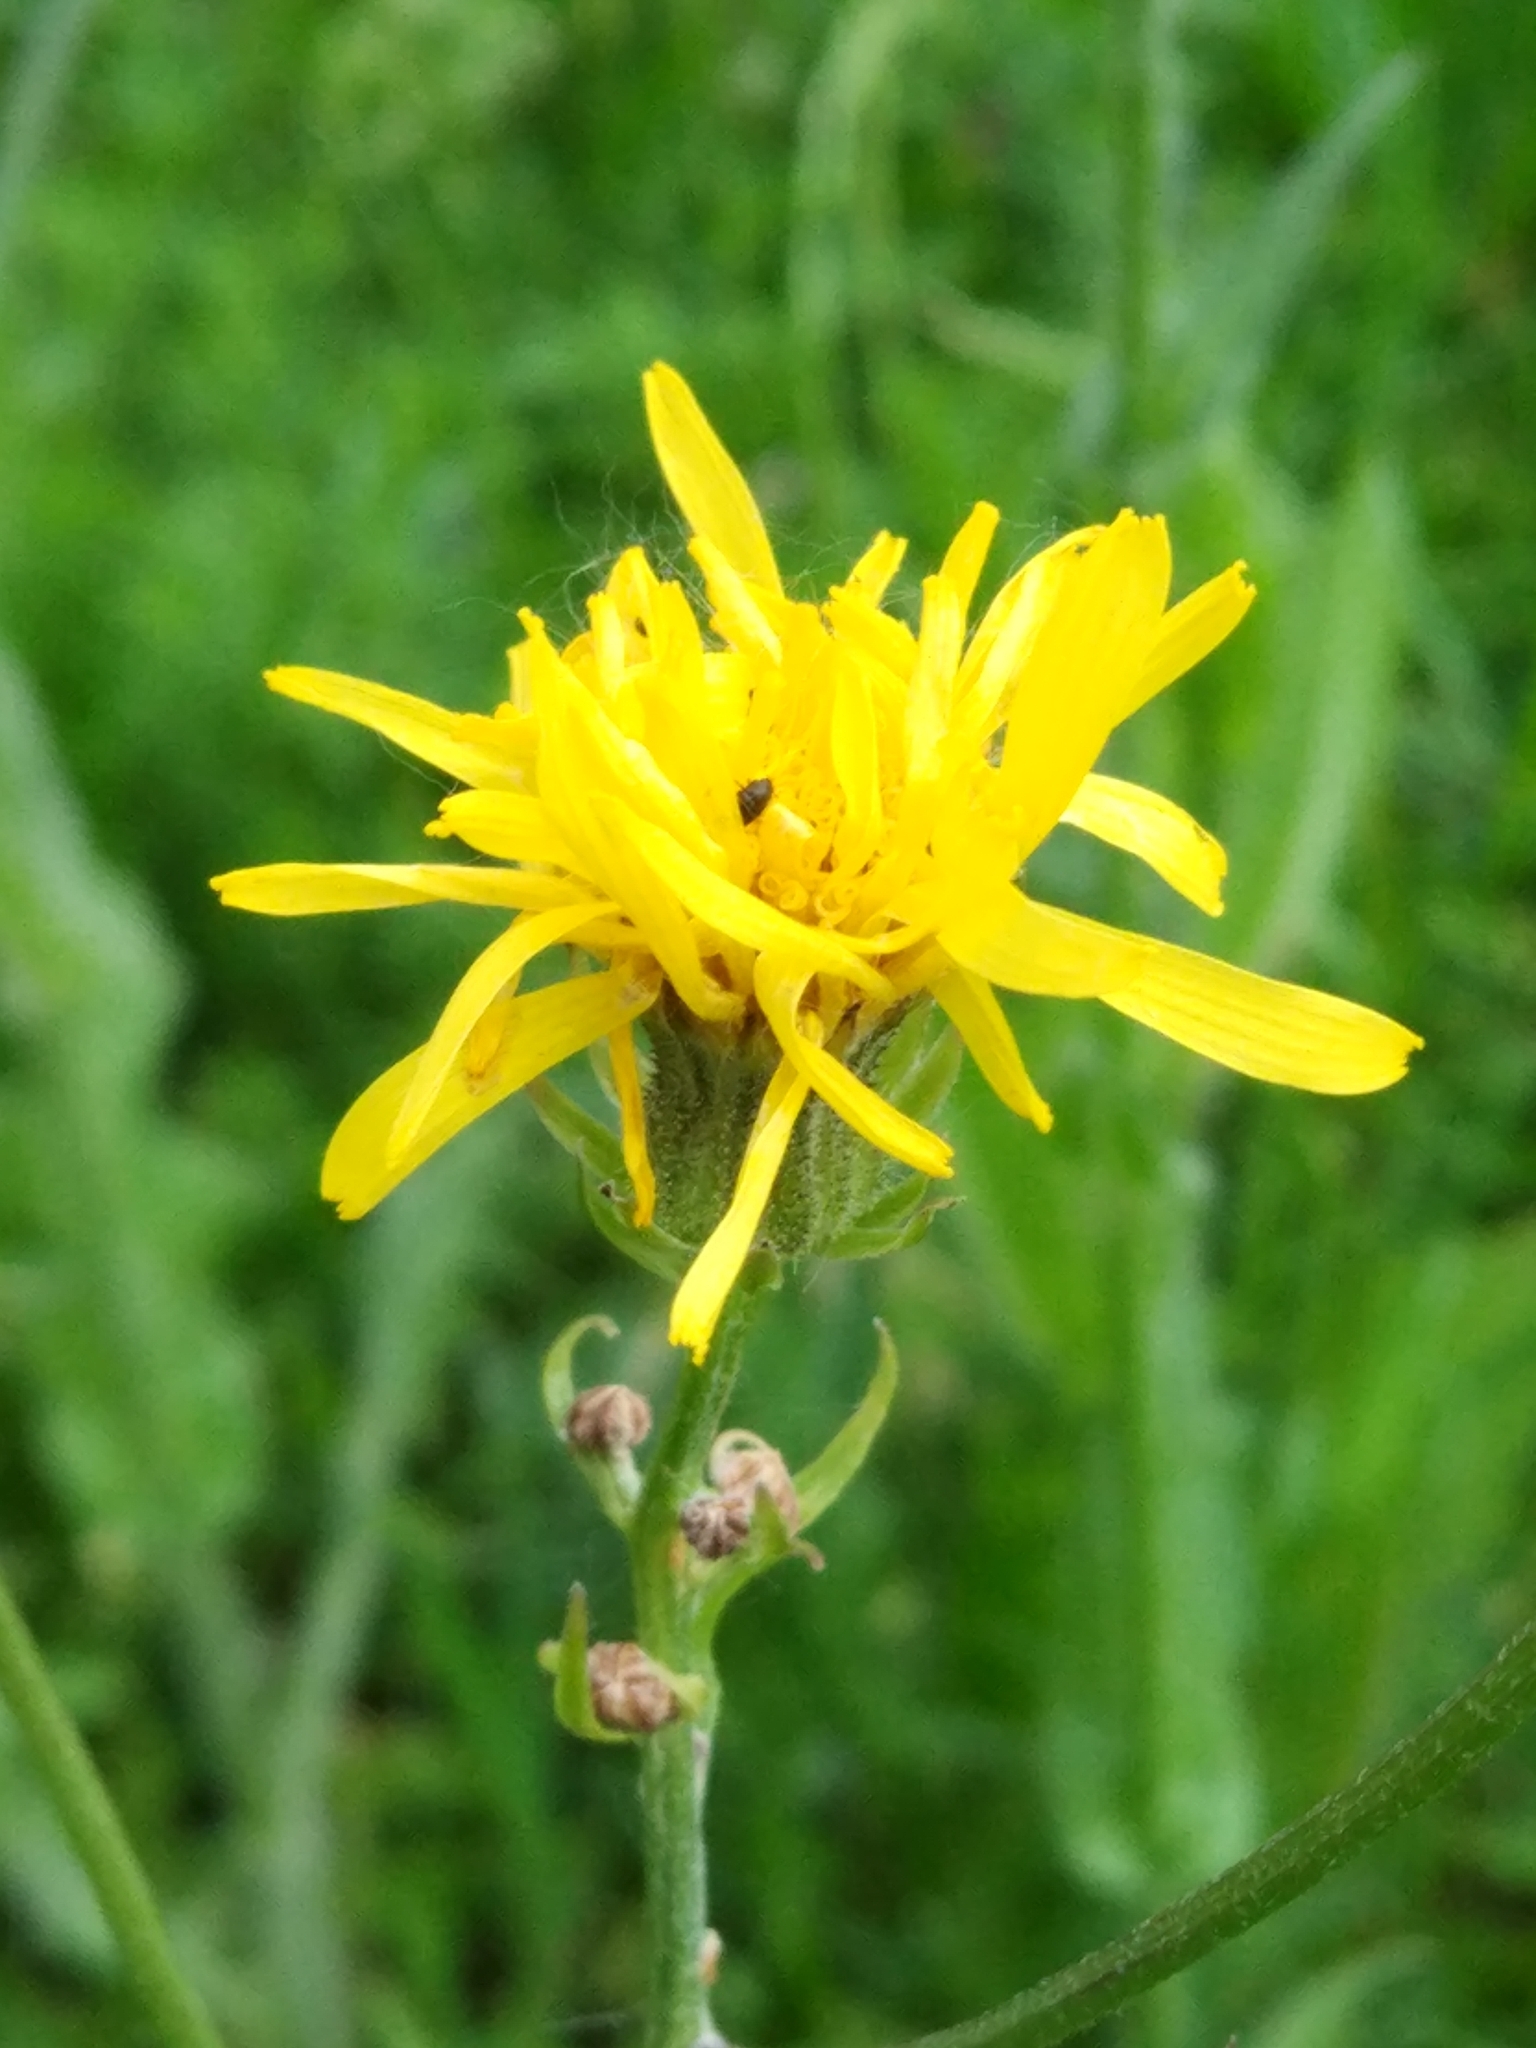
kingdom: Plantae
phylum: Tracheophyta
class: Magnoliopsida
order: Asterales
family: Asteraceae
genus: Crepis
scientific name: Crepis biennis
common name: Rough hawk's-beard
